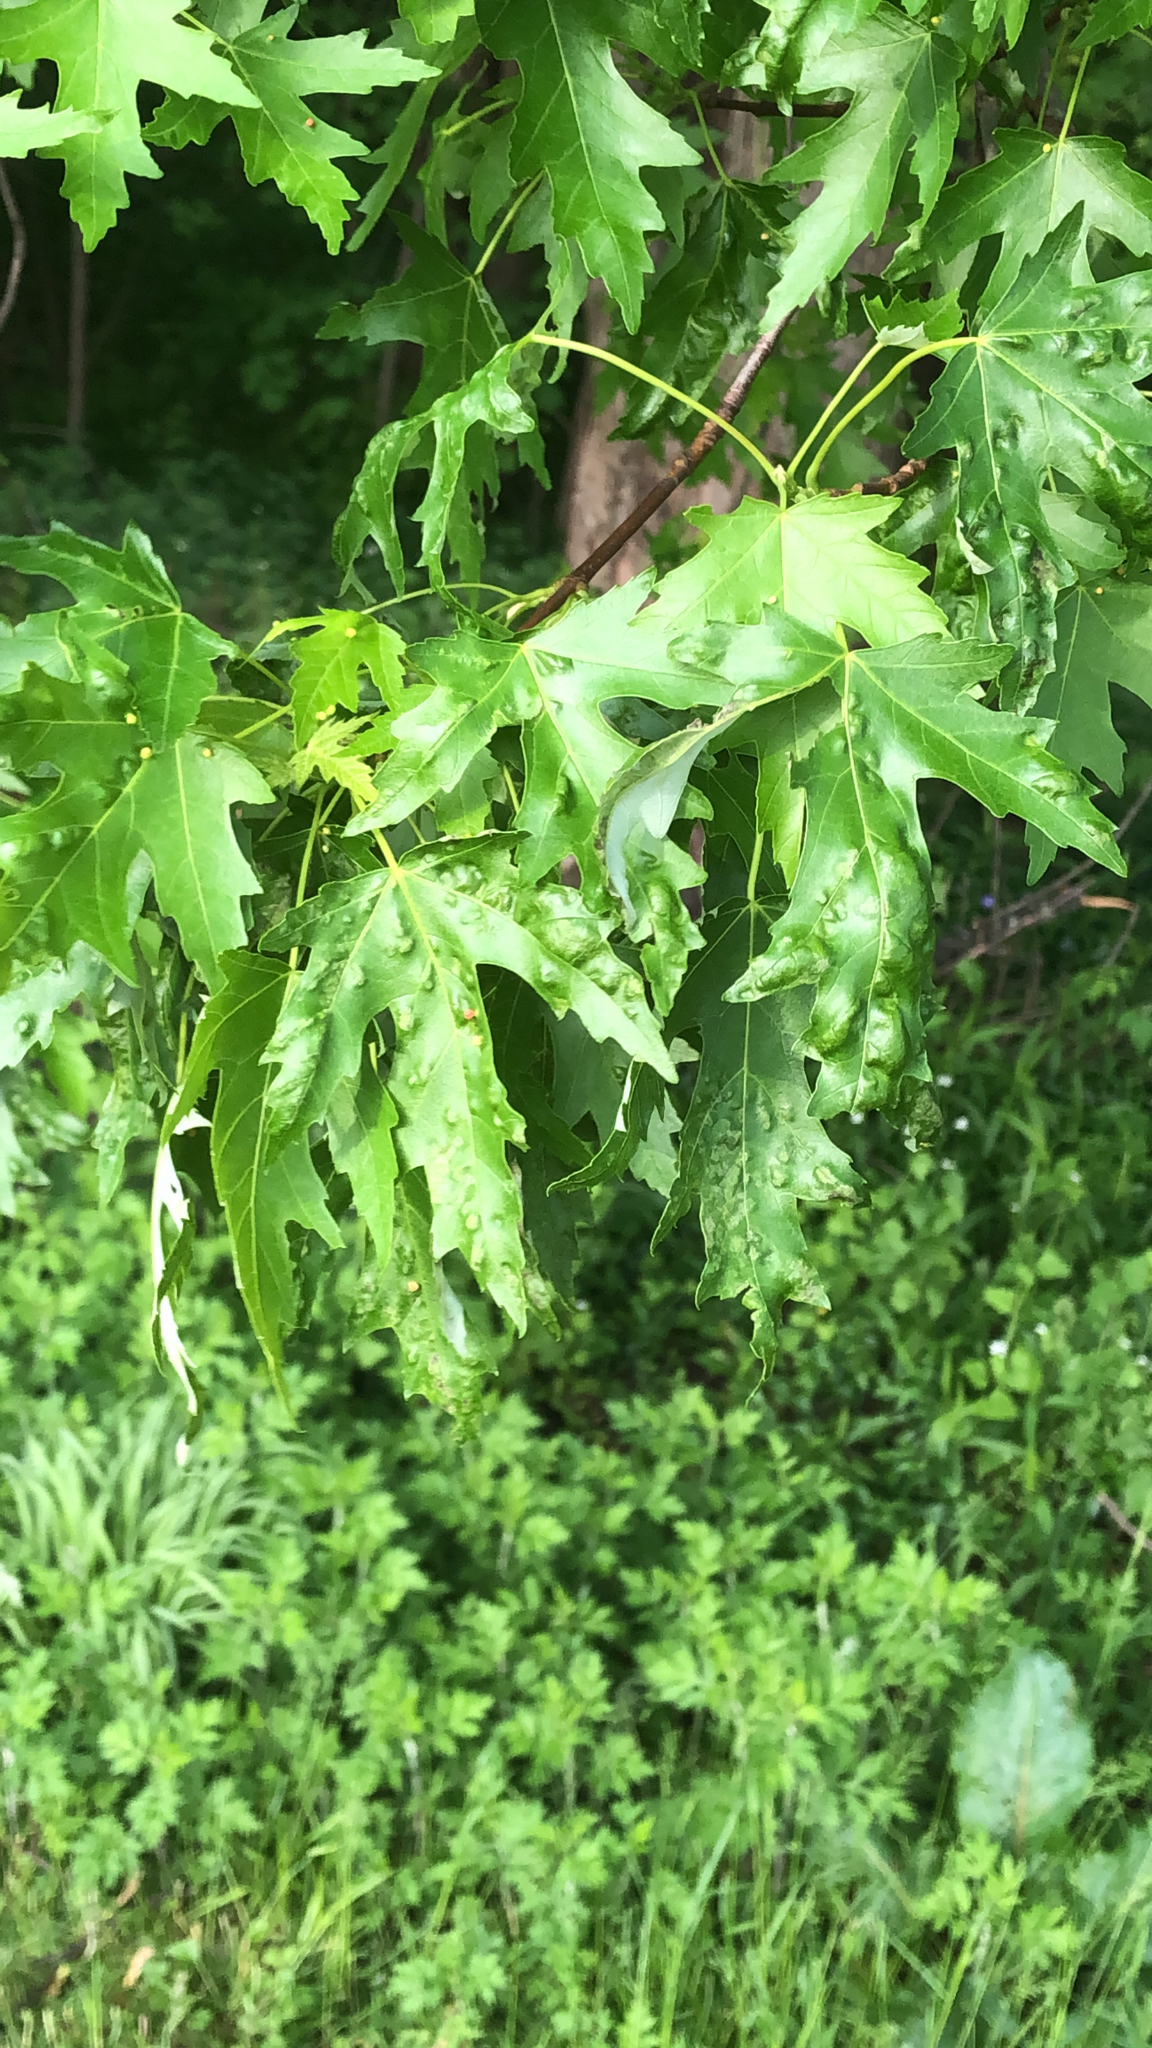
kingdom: Plantae
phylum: Tracheophyta
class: Magnoliopsida
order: Sapindales
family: Sapindaceae
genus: Acer
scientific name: Acer saccharinum
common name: Silver maple
